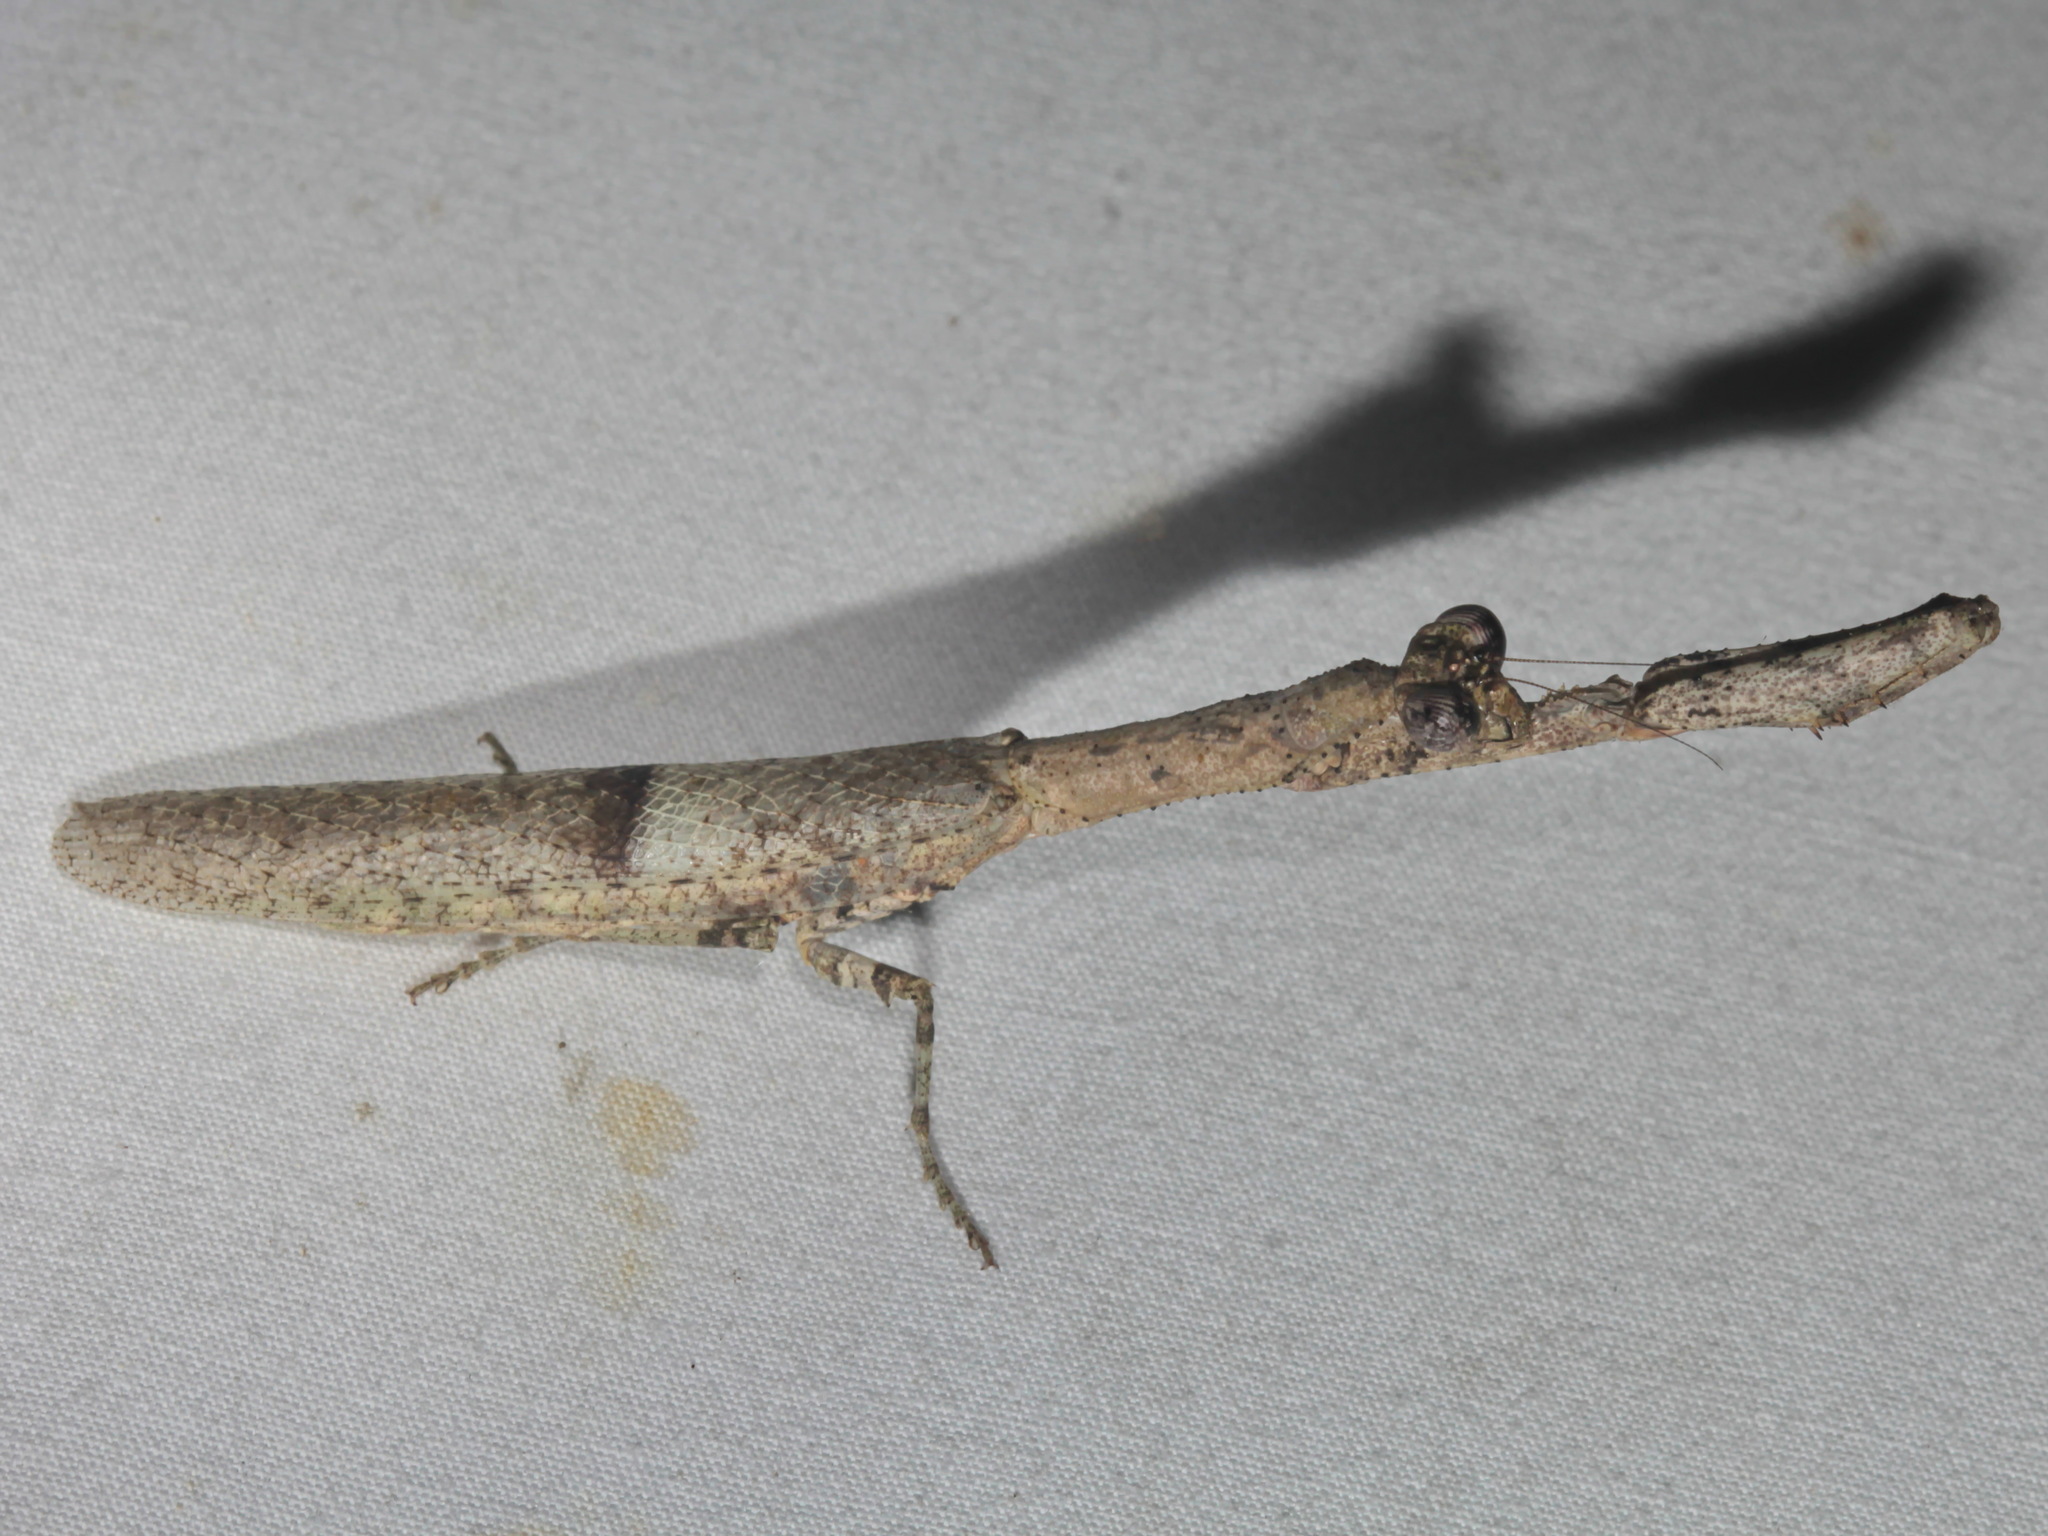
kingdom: Animalia
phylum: Arthropoda
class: Insecta
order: Mantodea
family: Hymenopodidae
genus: Ambivia
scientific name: Ambivia
